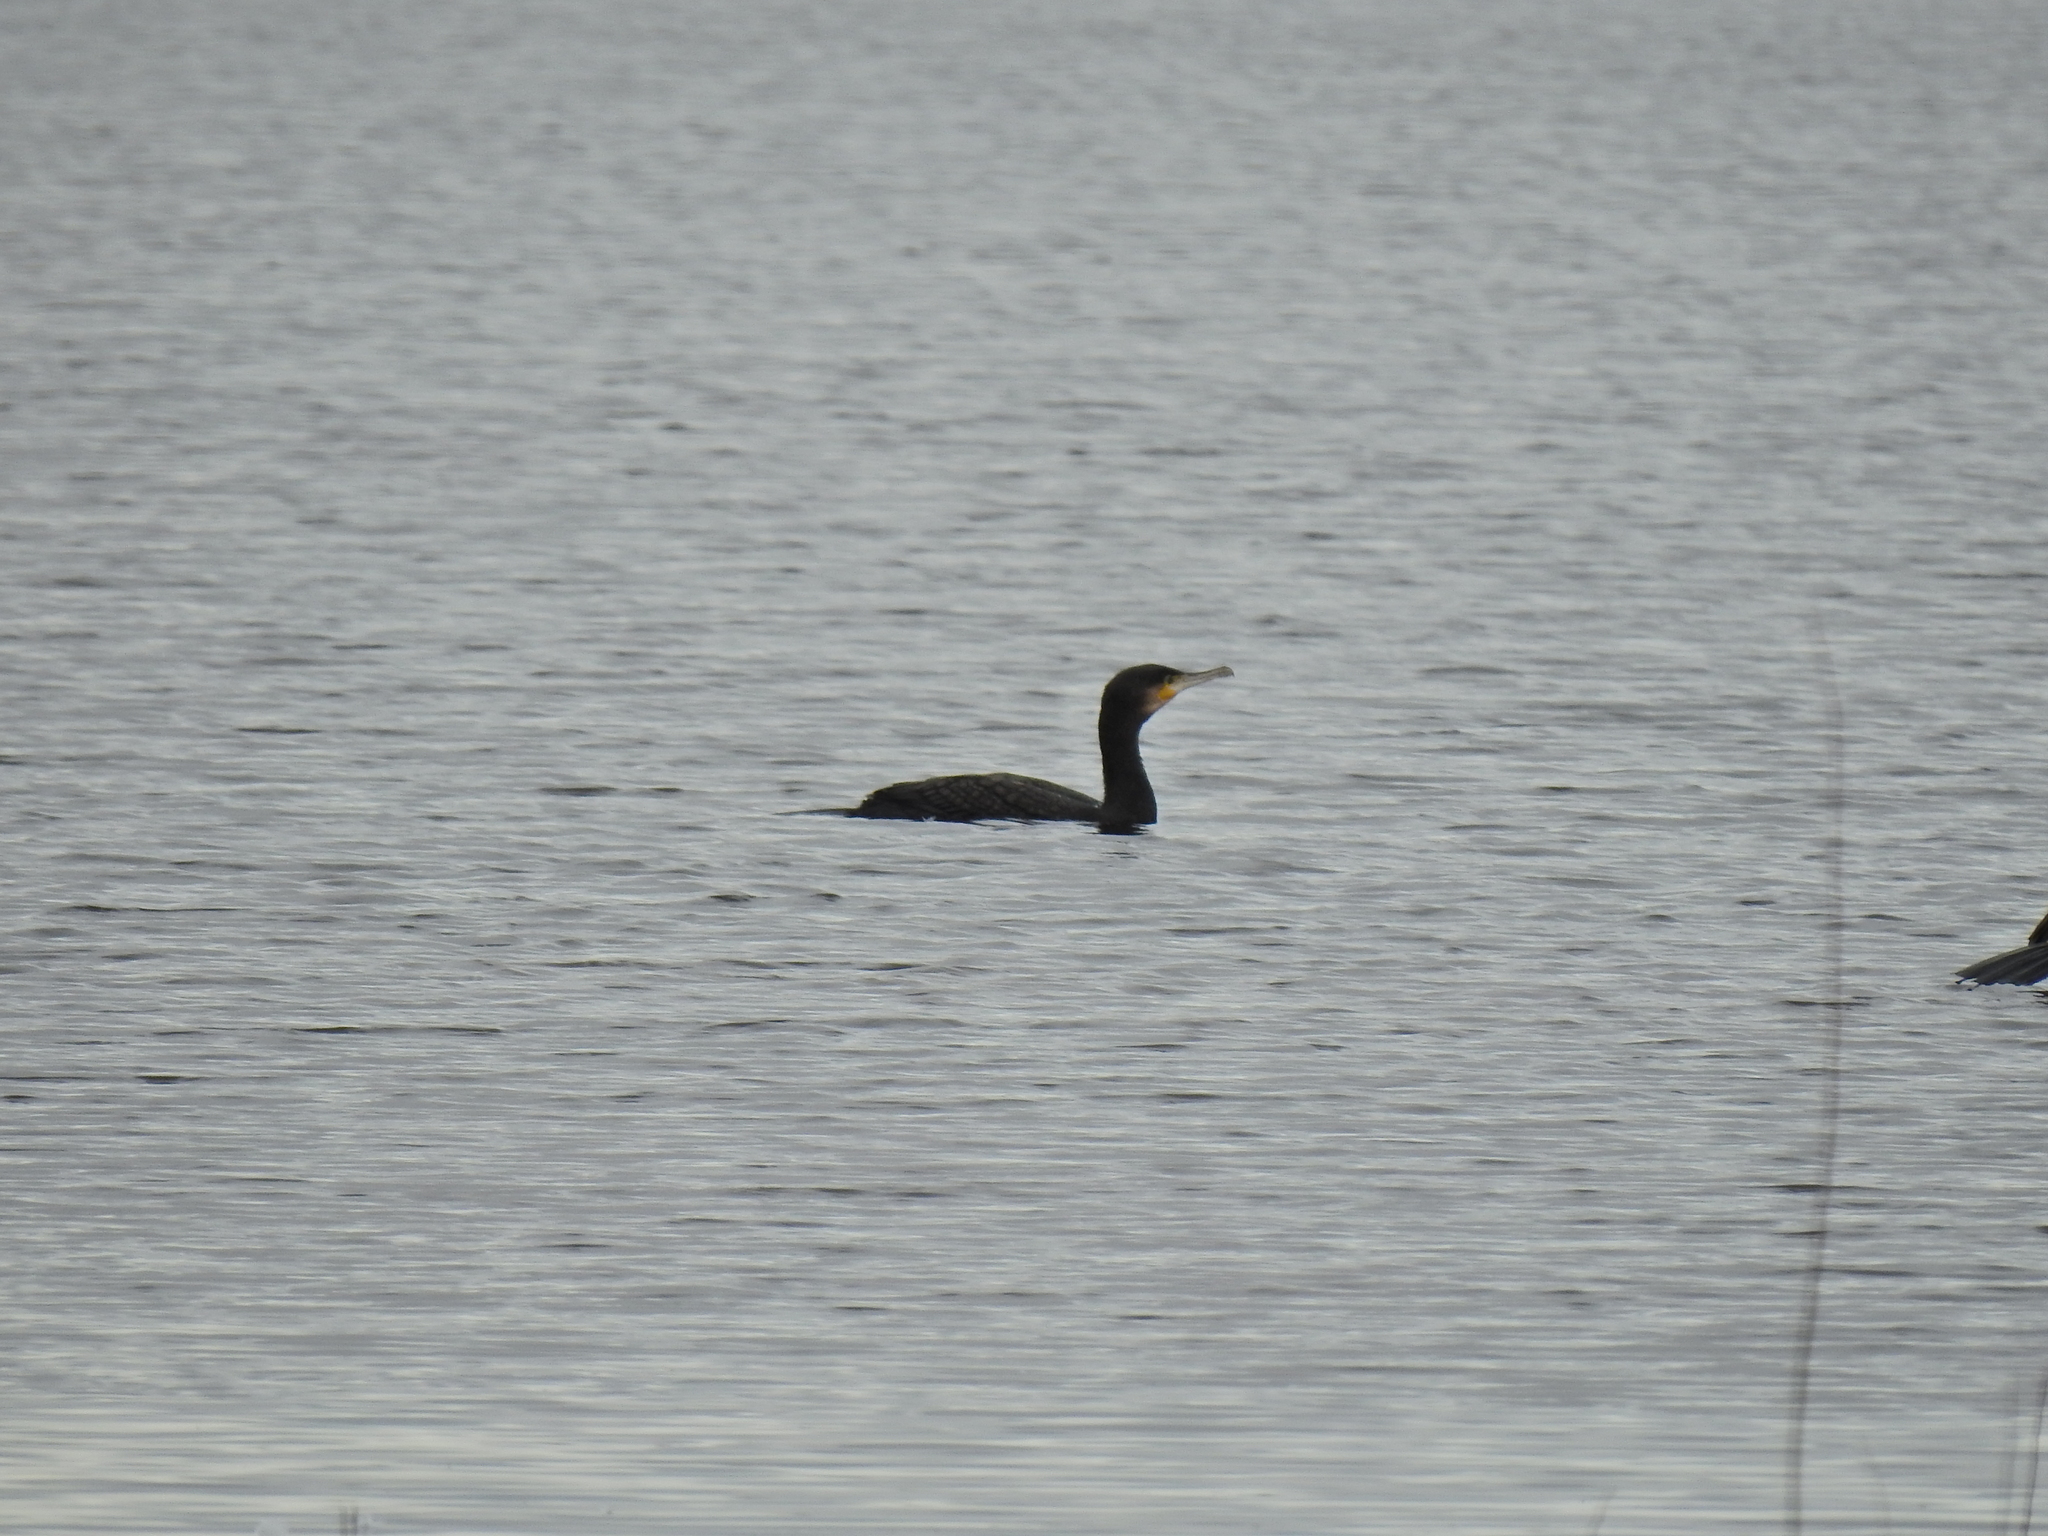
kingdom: Animalia
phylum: Chordata
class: Aves
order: Suliformes
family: Phalacrocoracidae
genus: Phalacrocorax
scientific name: Phalacrocorax carbo
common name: Great cormorant
